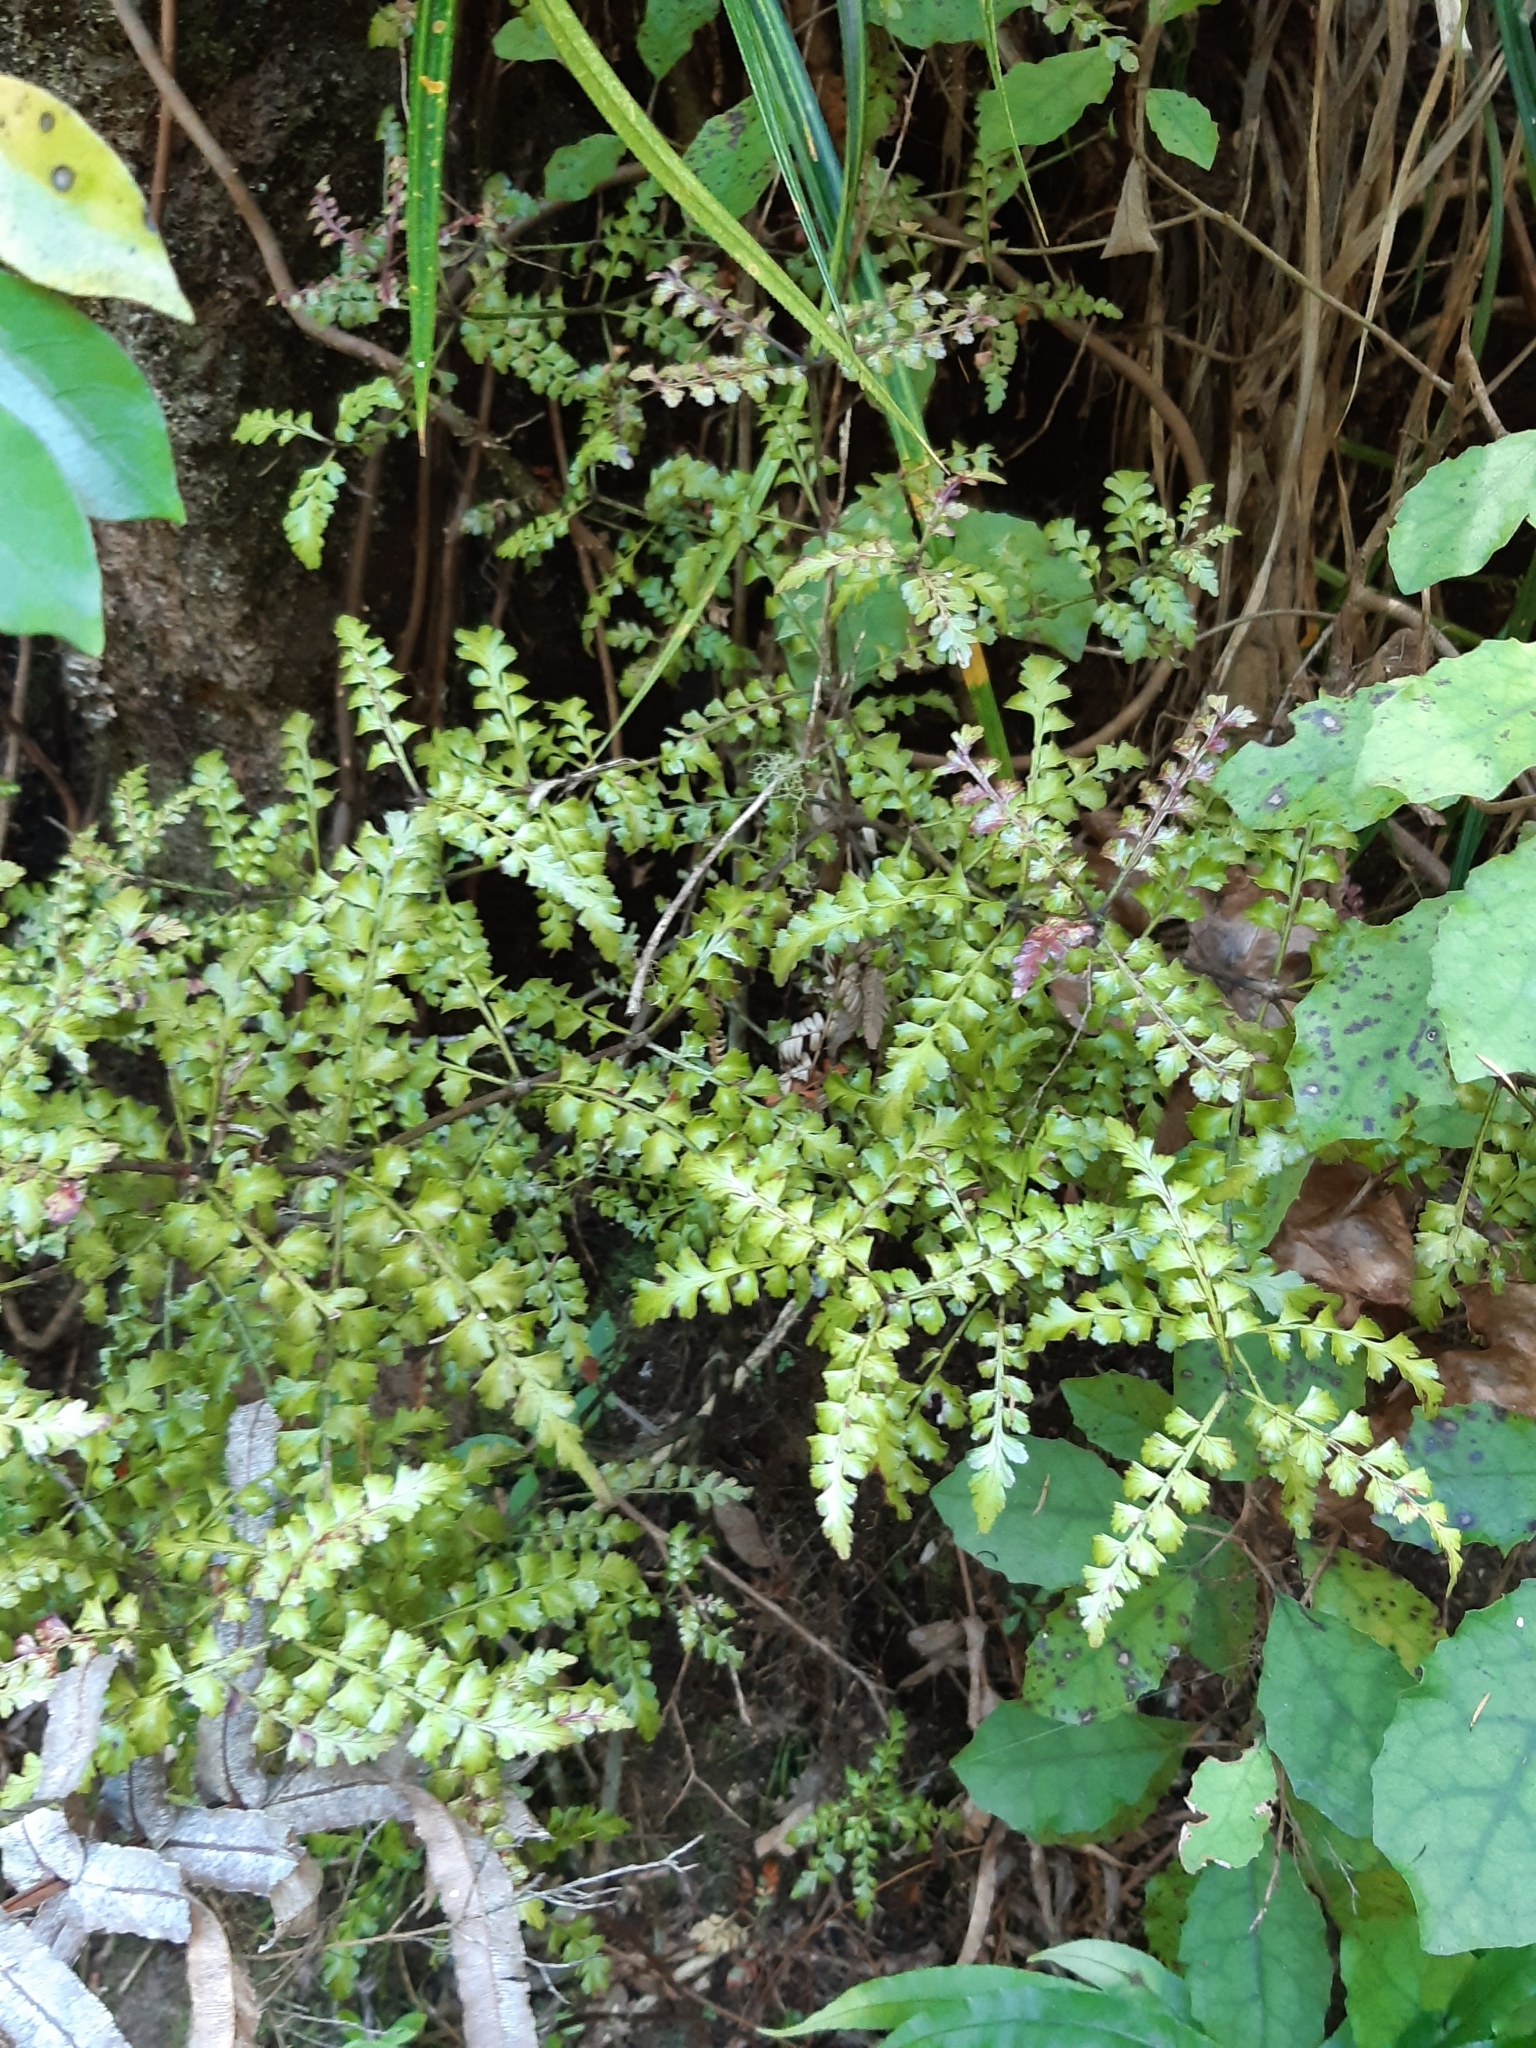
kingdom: Plantae
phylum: Tracheophyta
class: Pinopsida
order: Pinales
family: Phyllocladaceae
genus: Phyllocladus
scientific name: Phyllocladus trichomanoides
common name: Celery pine
